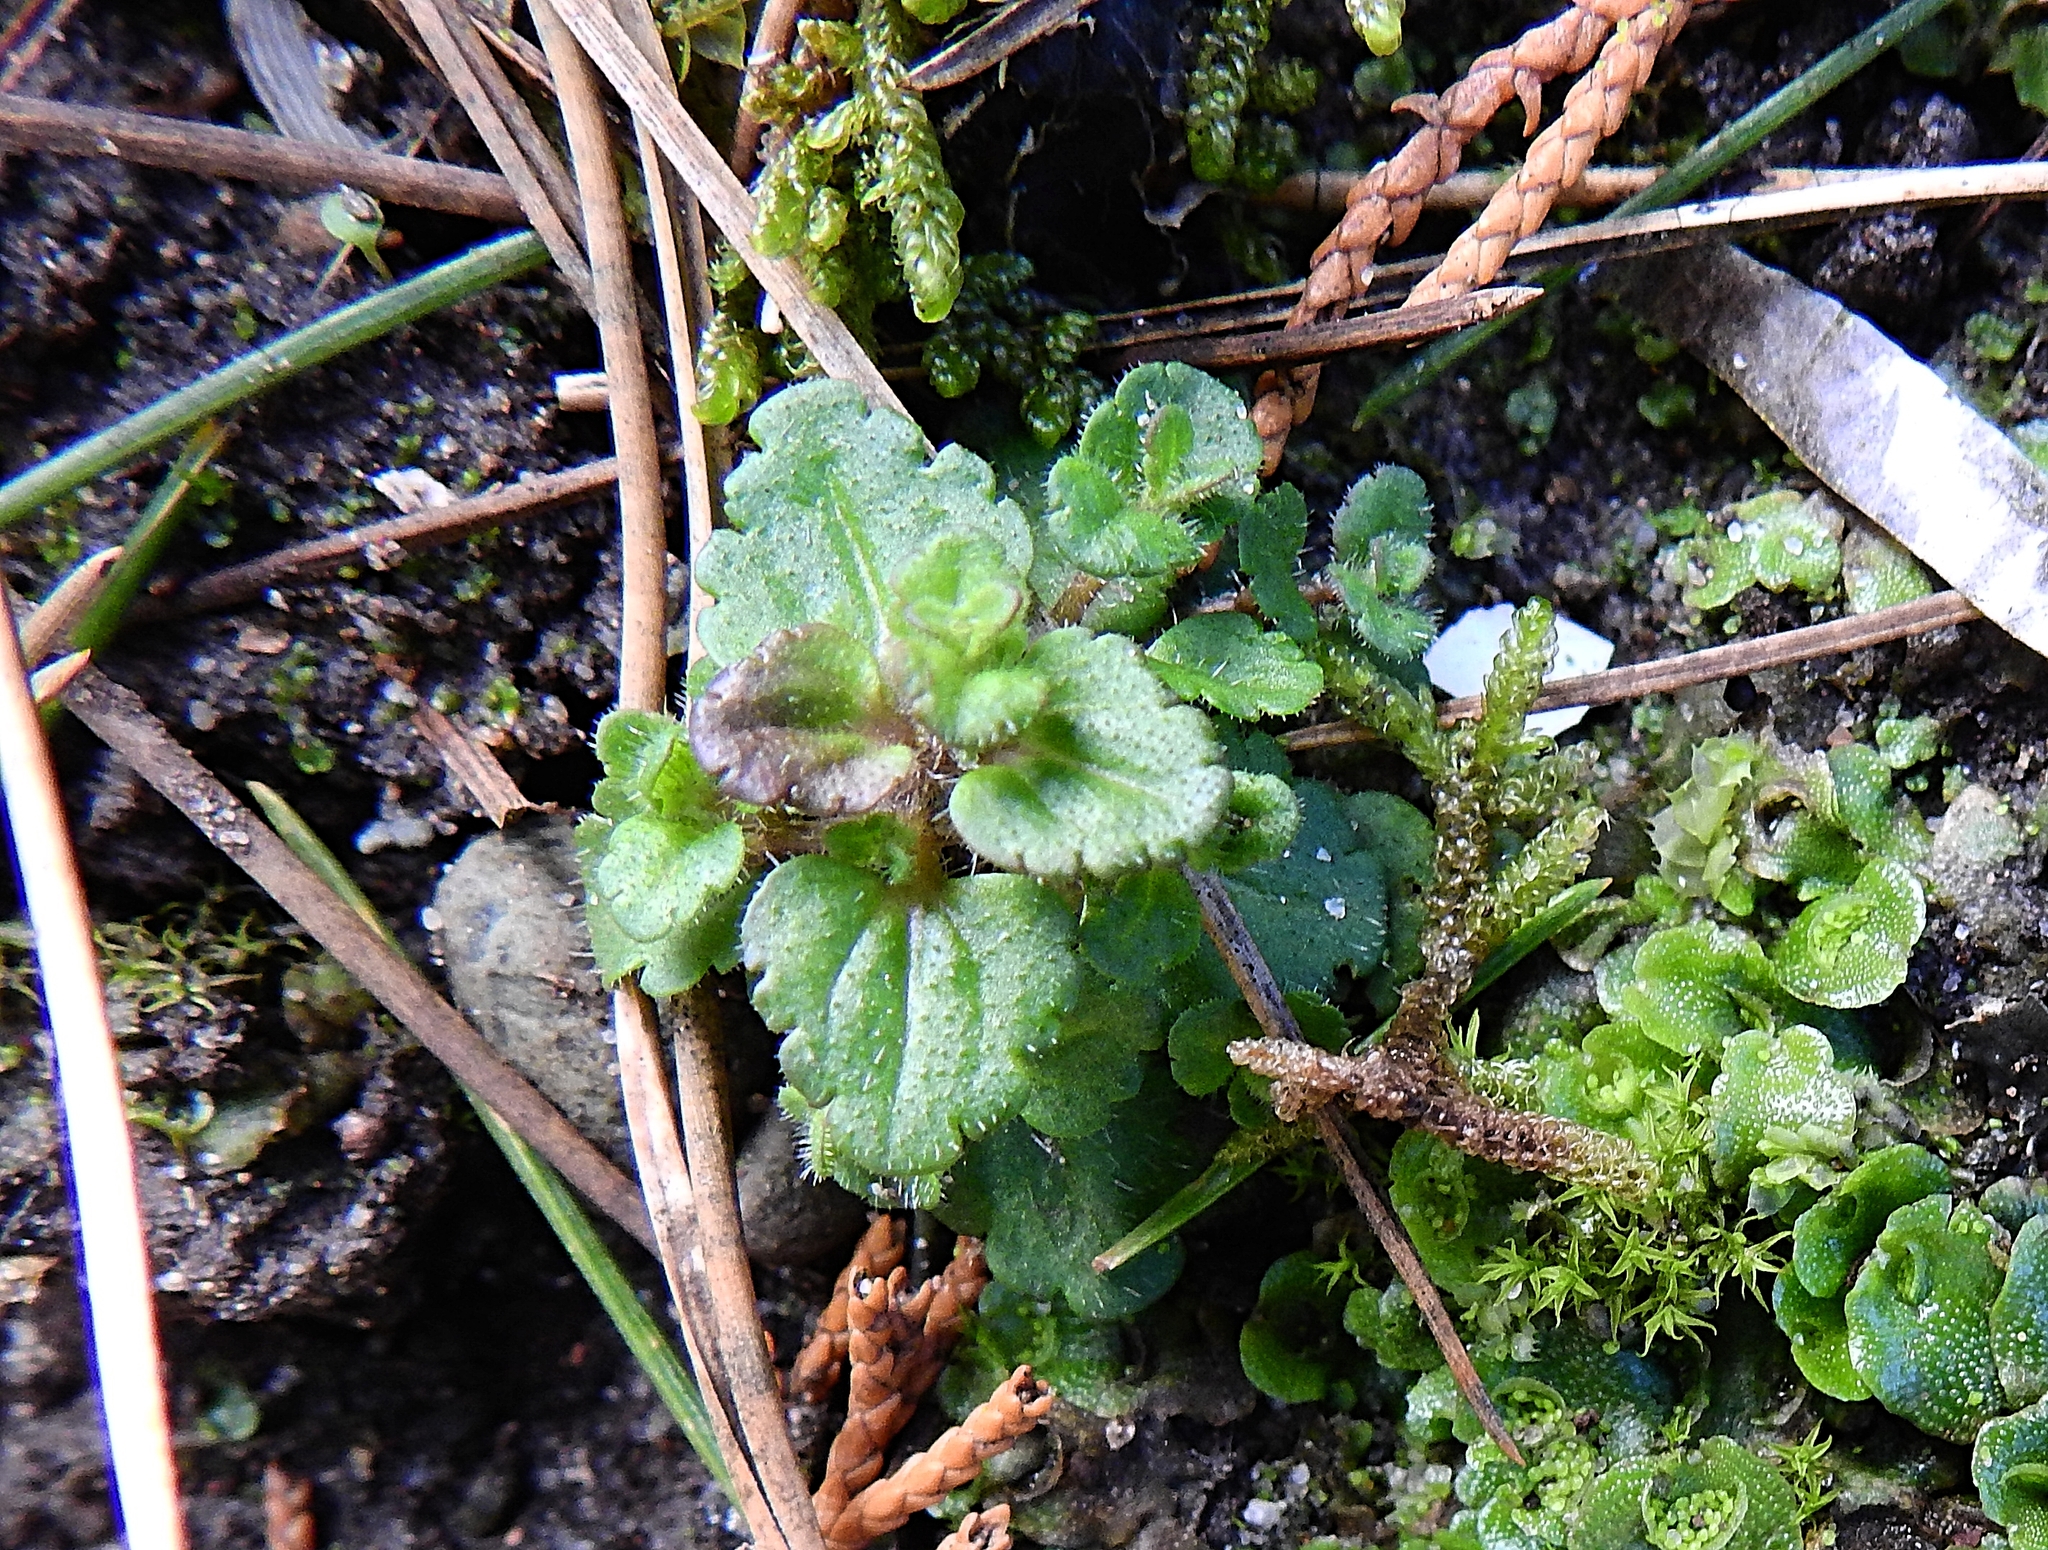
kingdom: Plantae
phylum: Tracheophyta
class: Magnoliopsida
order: Lamiales
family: Plantaginaceae
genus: Veronica
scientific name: Veronica persica
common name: Common field-speedwell
